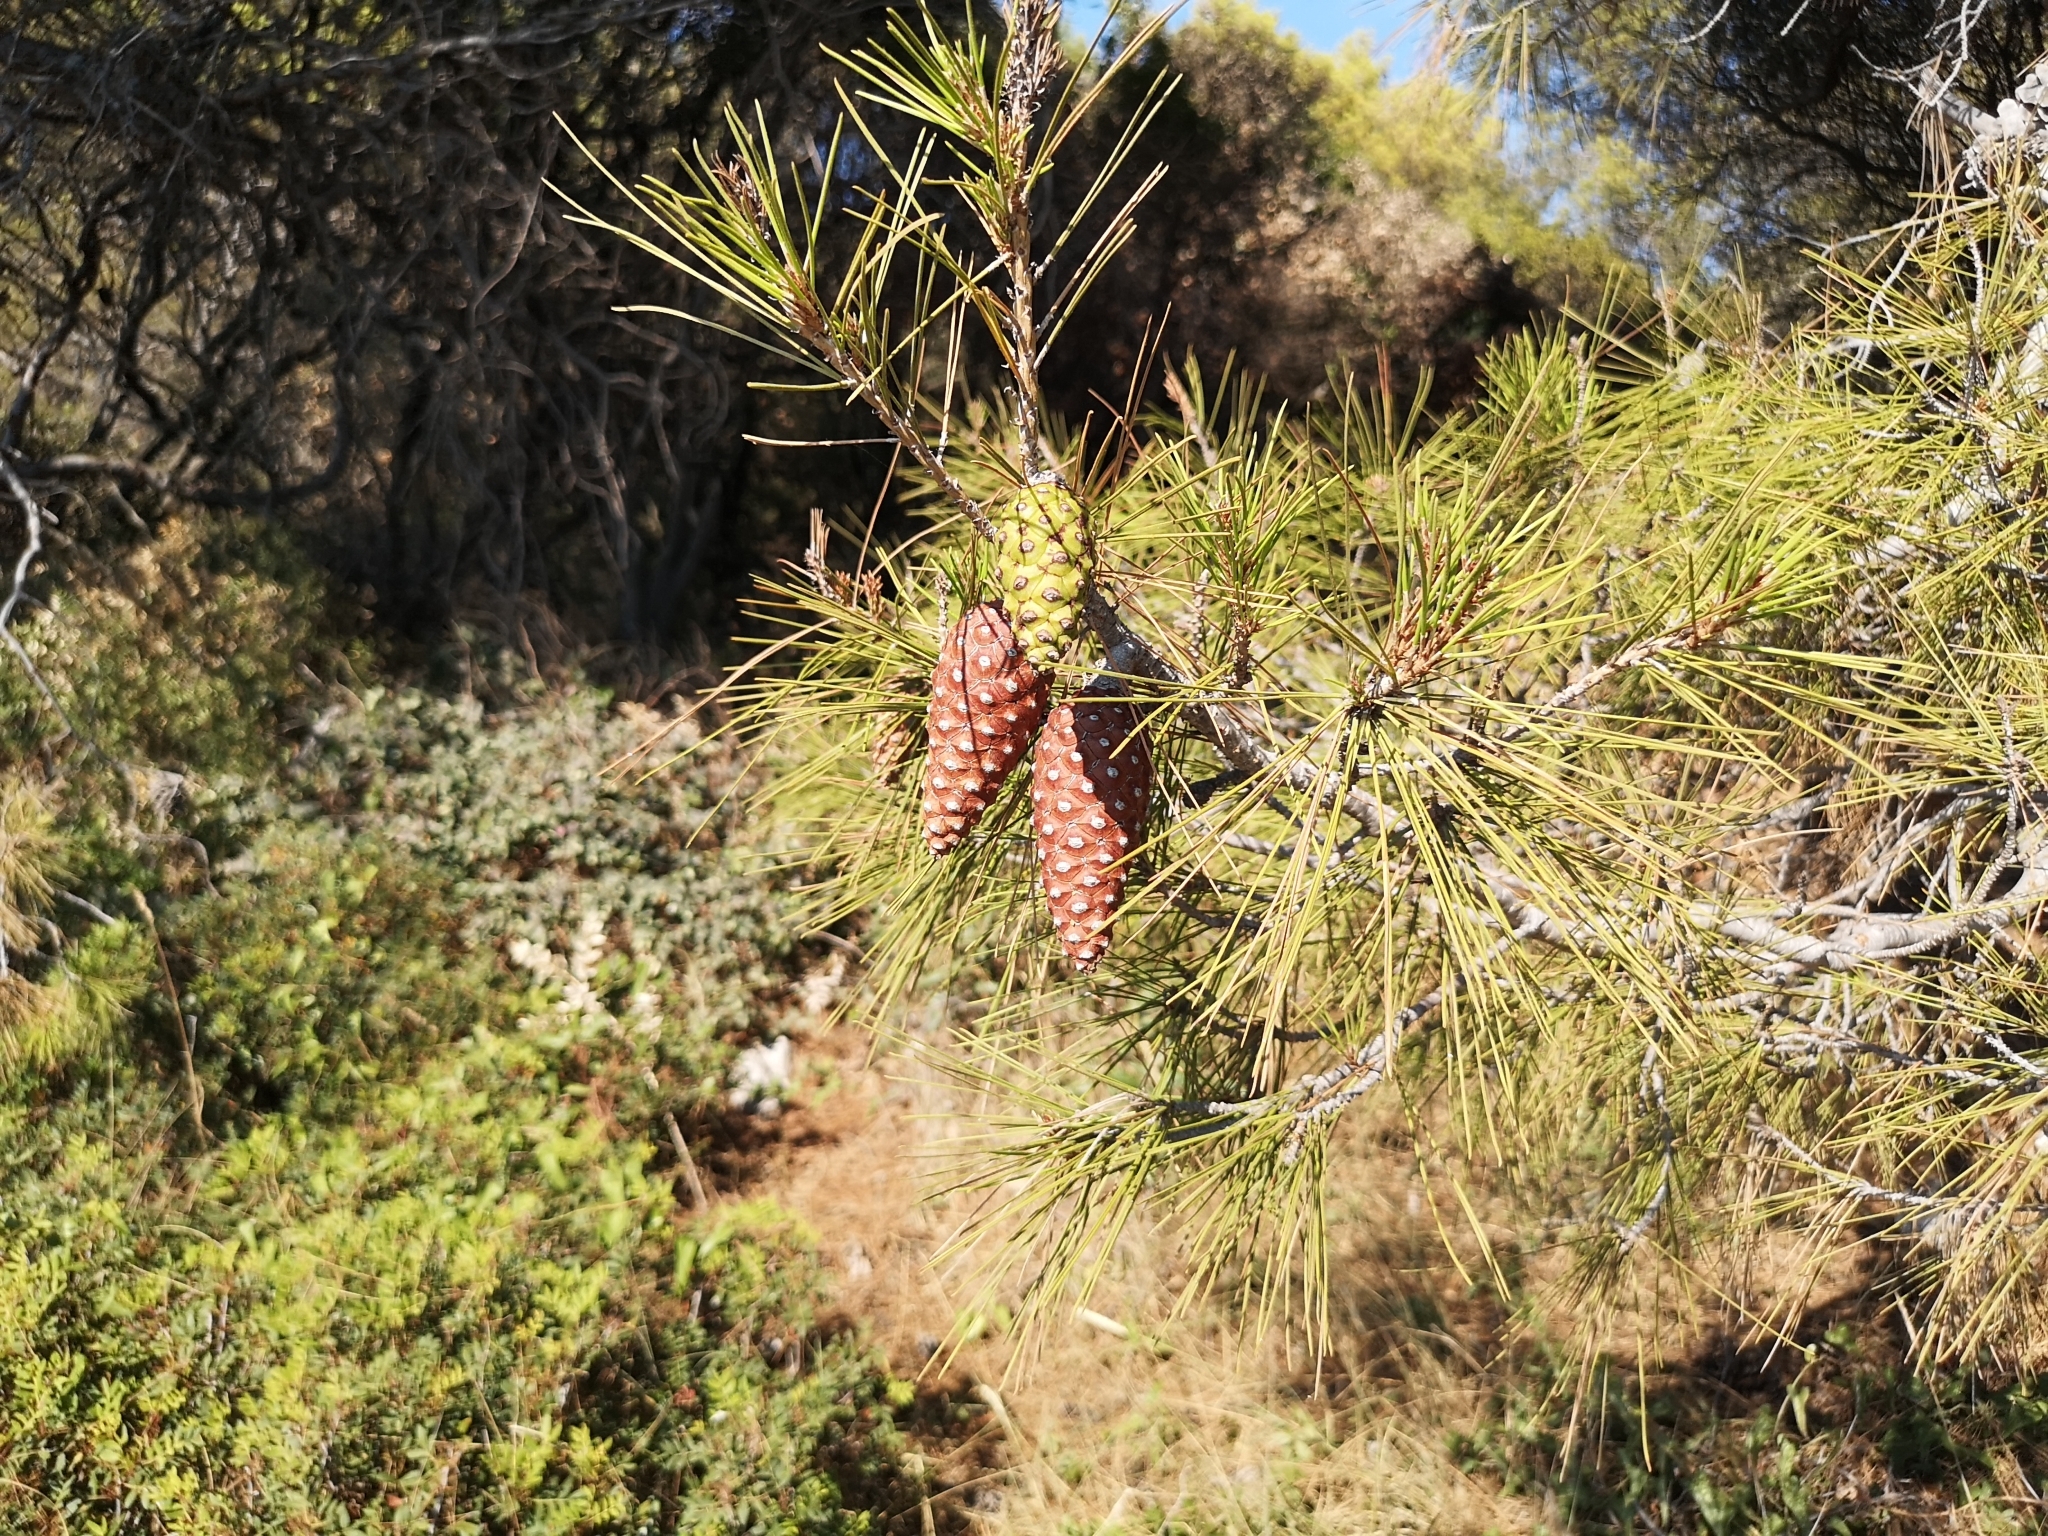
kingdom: Plantae
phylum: Tracheophyta
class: Pinopsida
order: Pinales
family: Pinaceae
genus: Pinus
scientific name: Pinus halepensis
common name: Aleppo pine
